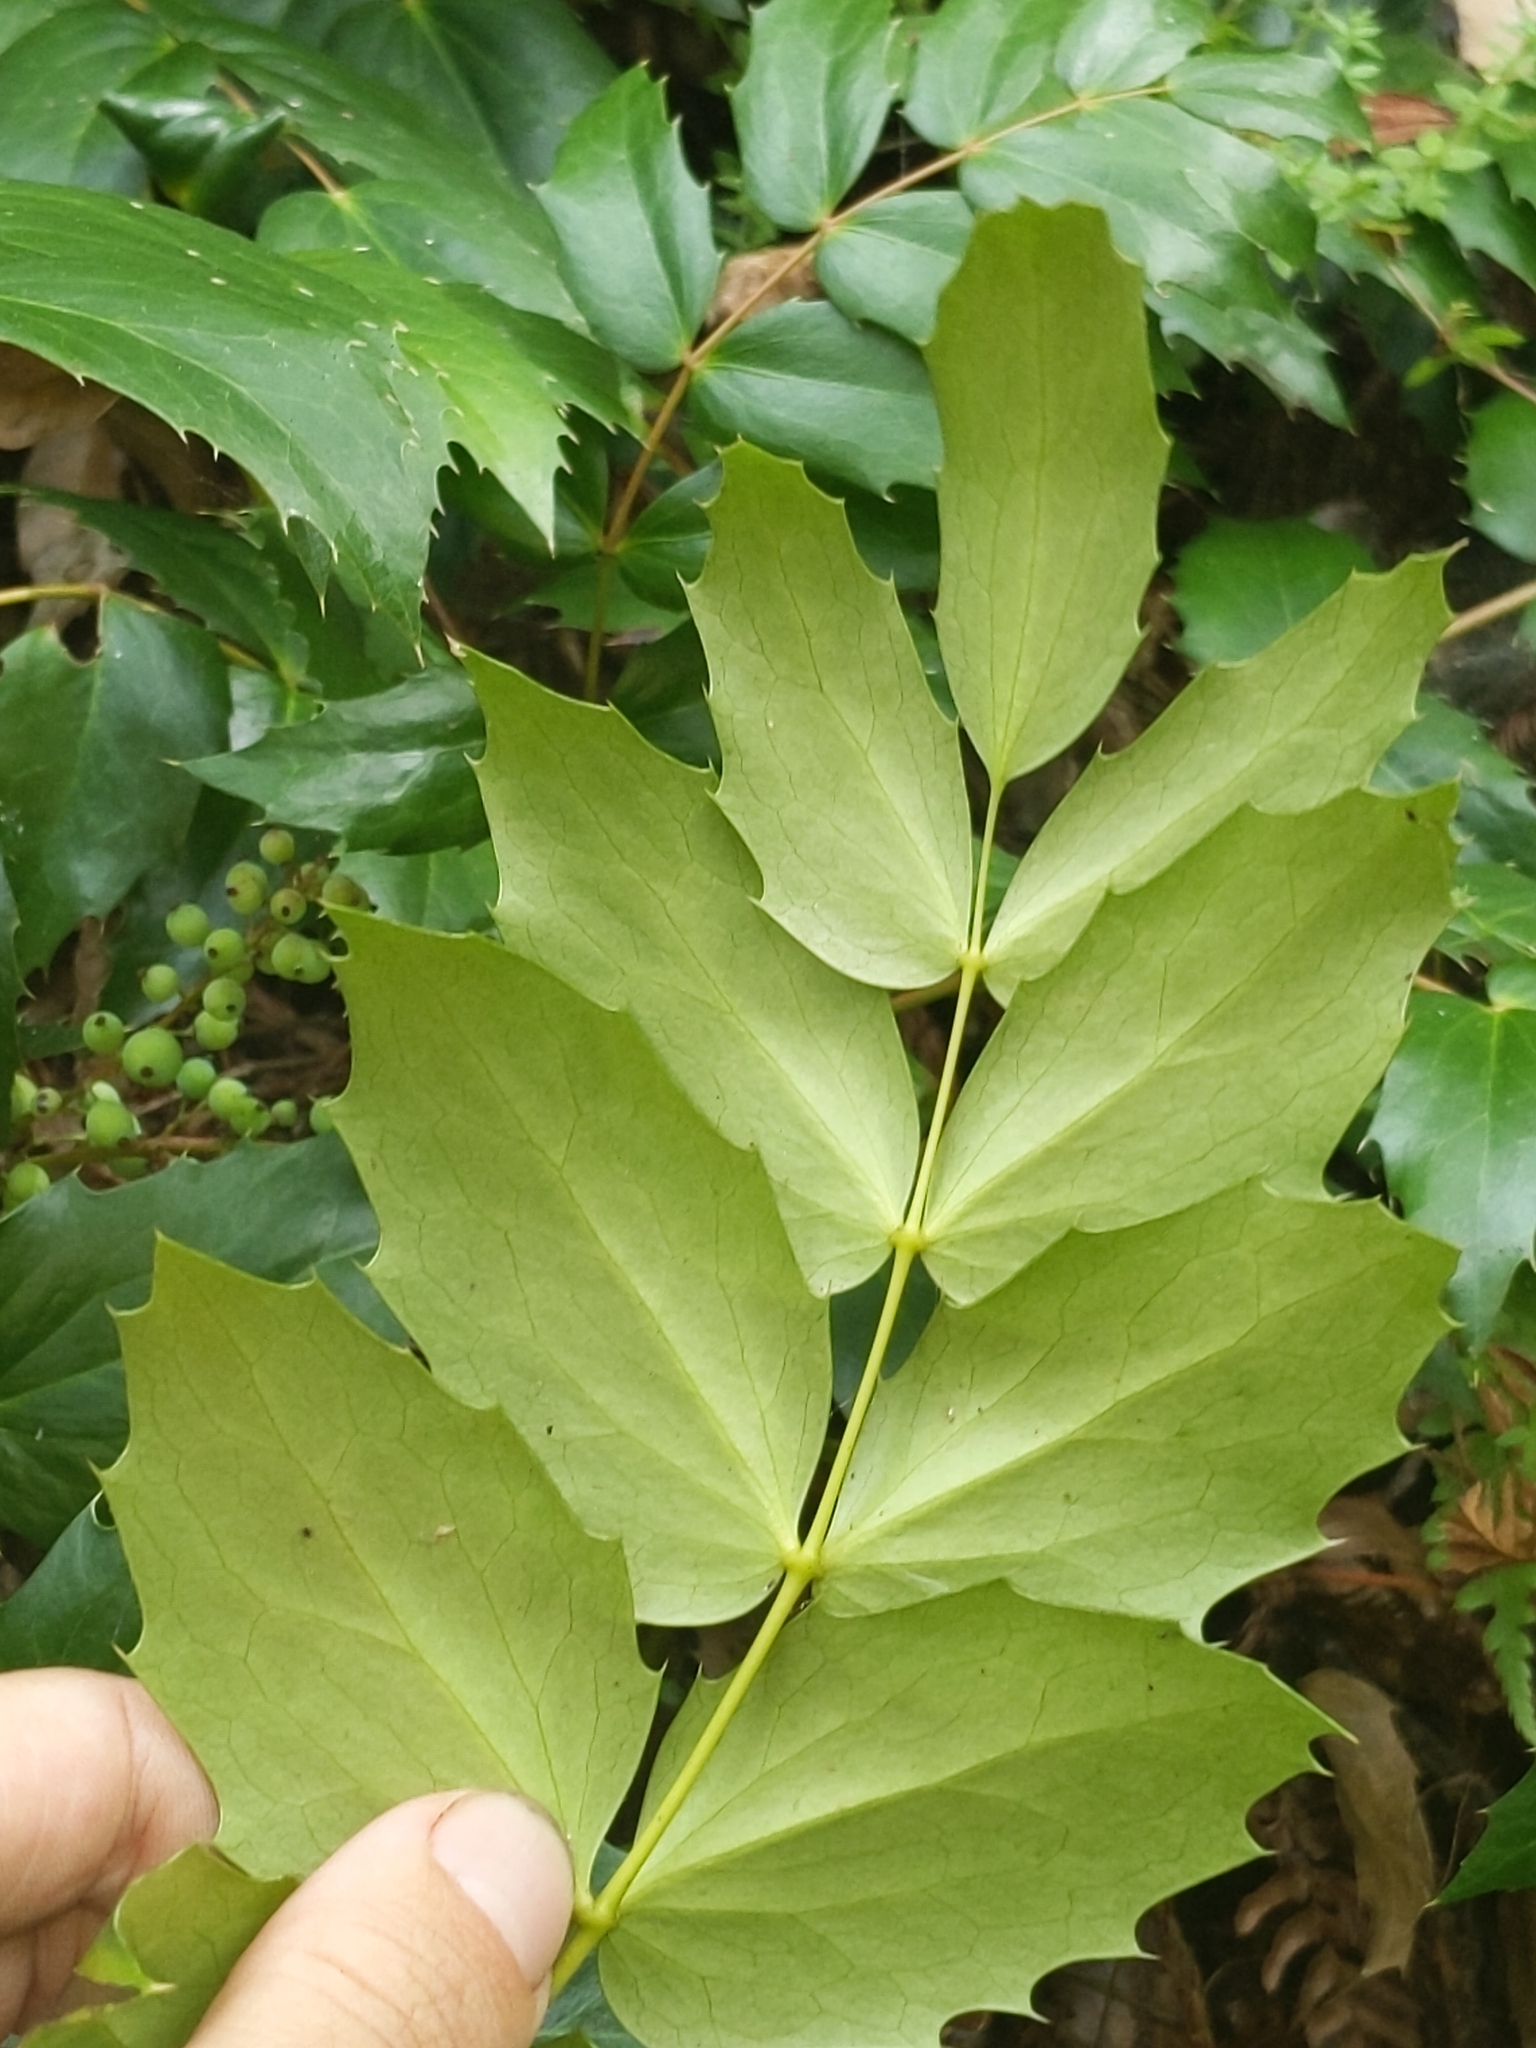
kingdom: Plantae
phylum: Tracheophyta
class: Magnoliopsida
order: Ranunculales
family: Berberidaceae
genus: Mahonia
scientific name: Mahonia nervosa
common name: Cascade oregon-grape
